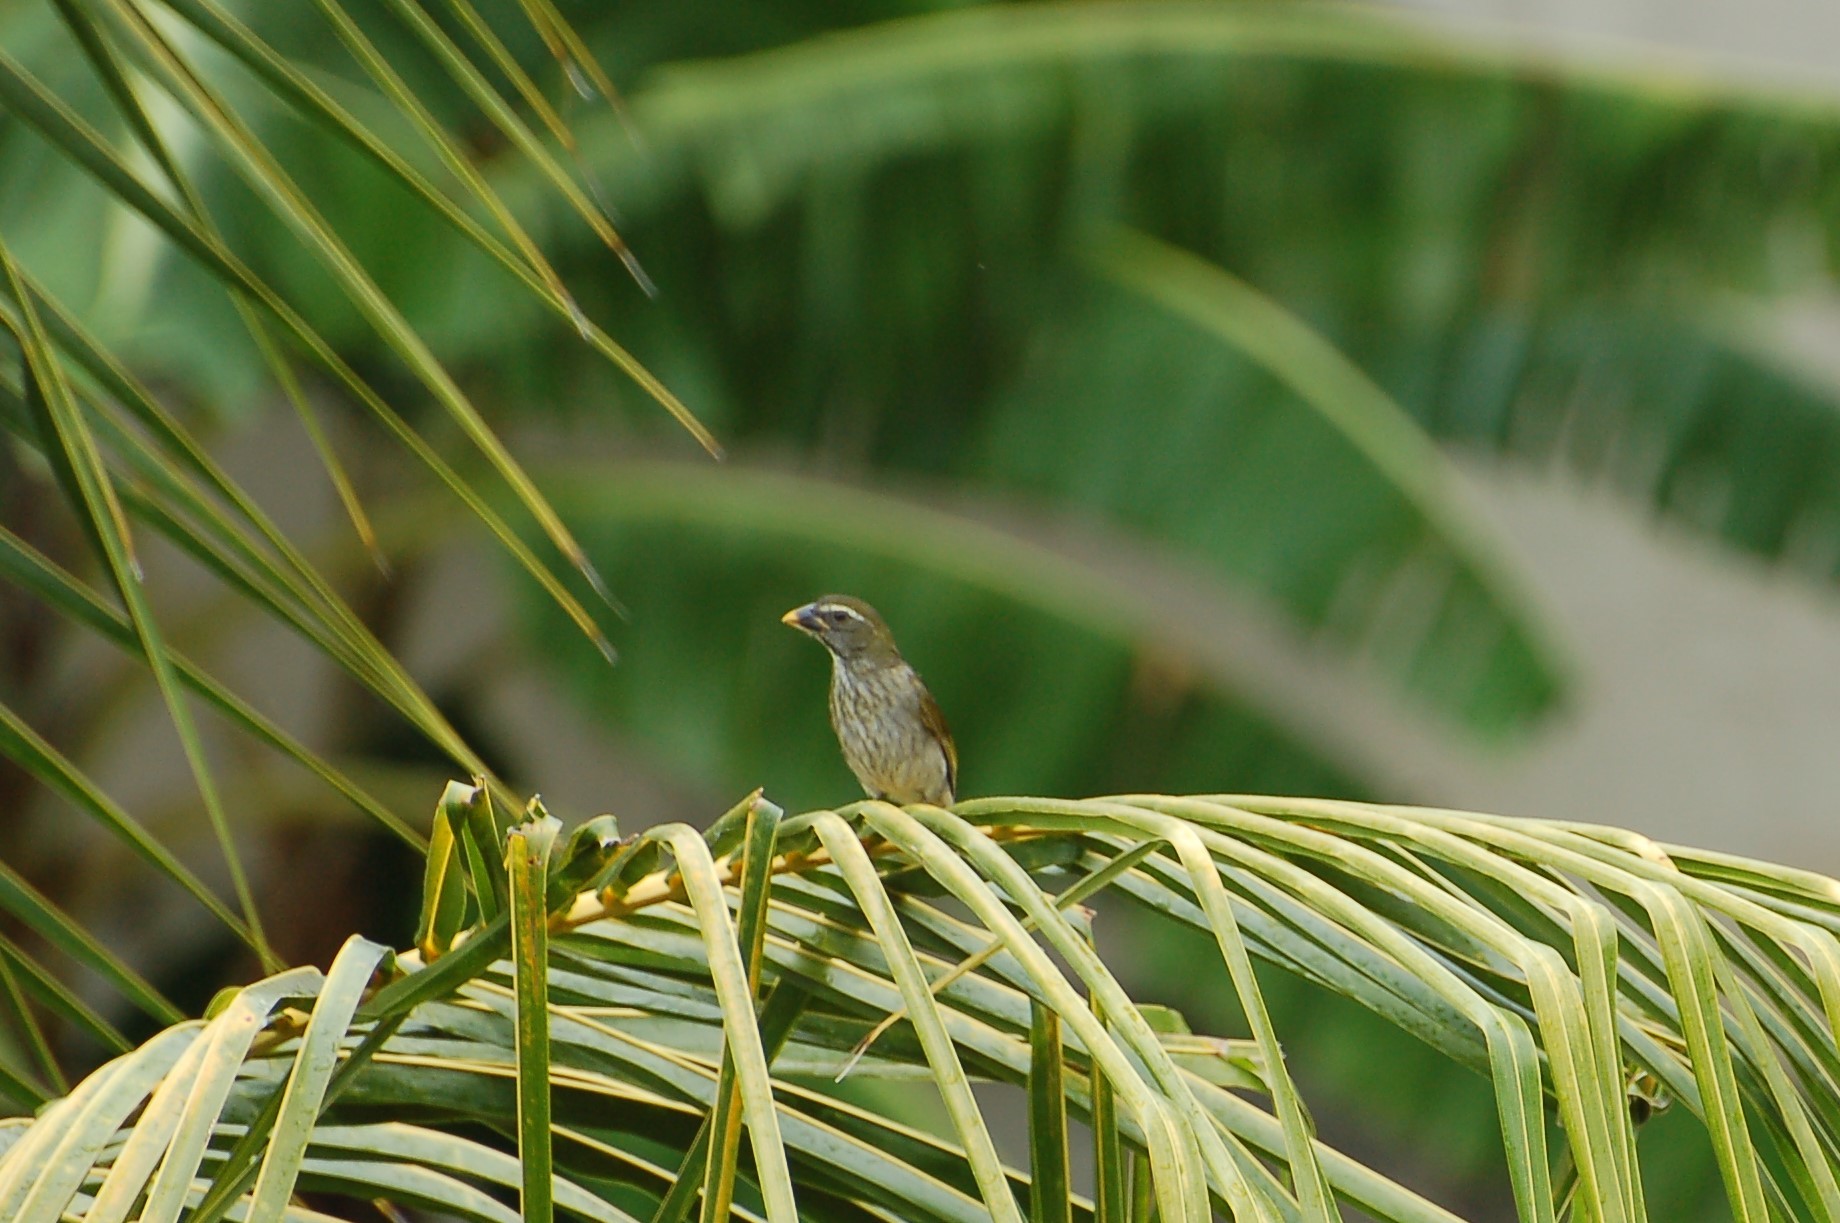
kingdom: Animalia
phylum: Chordata
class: Aves
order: Passeriformes
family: Thraupidae
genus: Saltator
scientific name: Saltator albicollis
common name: Lesser antillean saltator
